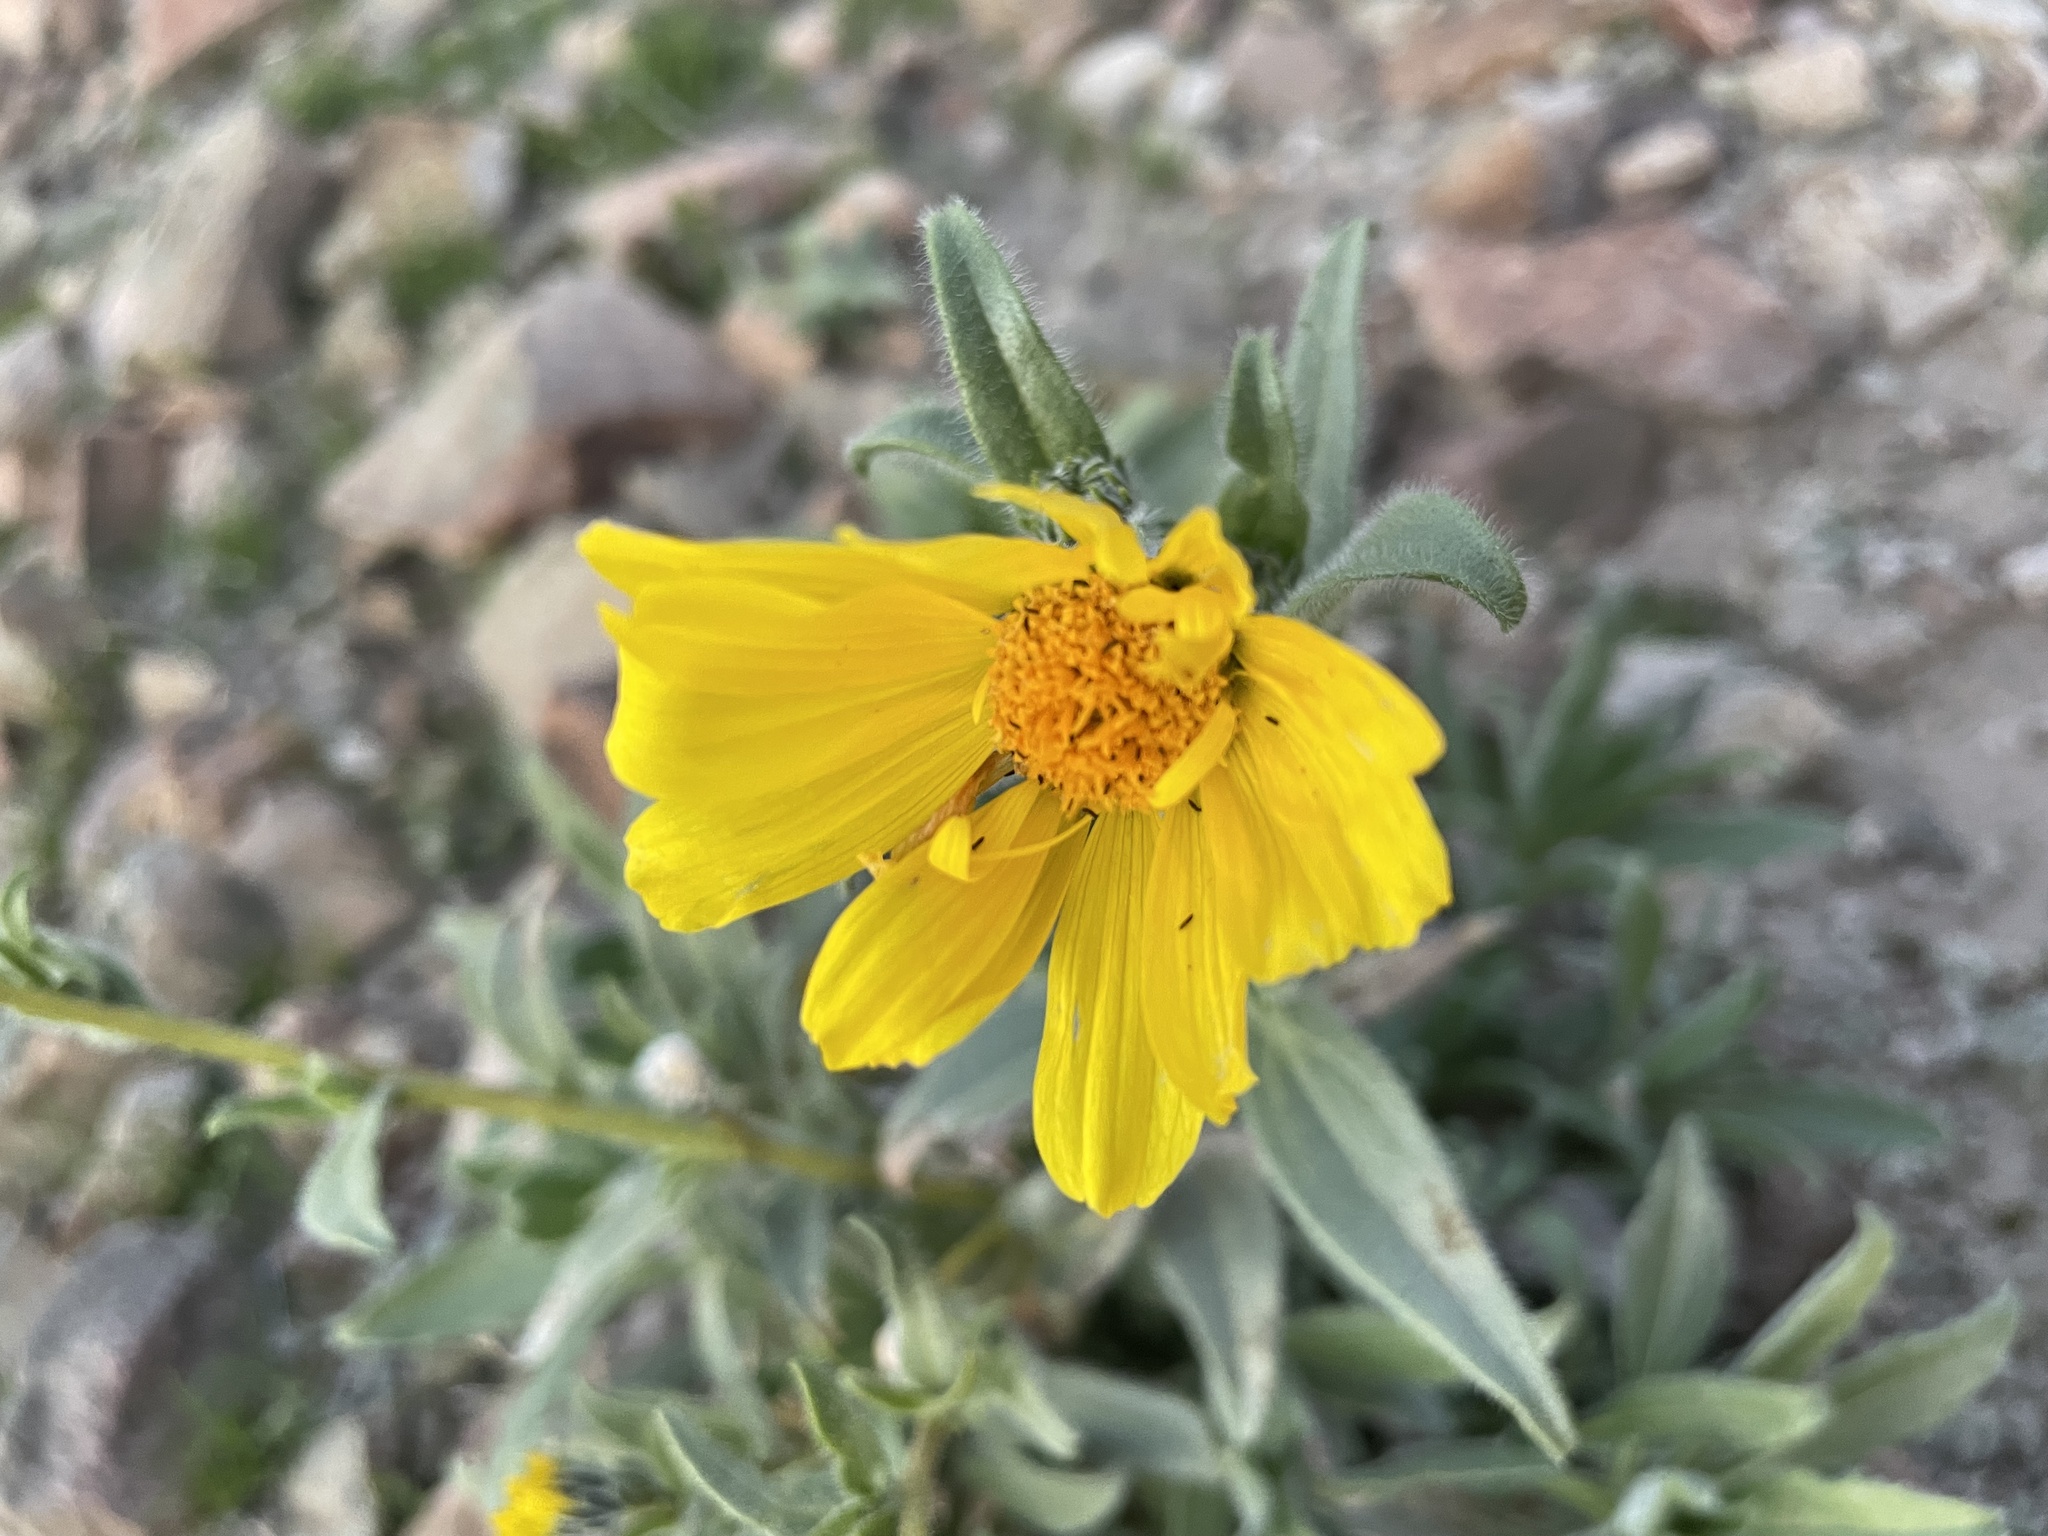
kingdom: Plantae
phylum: Tracheophyta
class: Magnoliopsida
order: Asterales
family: Asteraceae
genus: Geraea
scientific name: Geraea canescens
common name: Desert-gold
